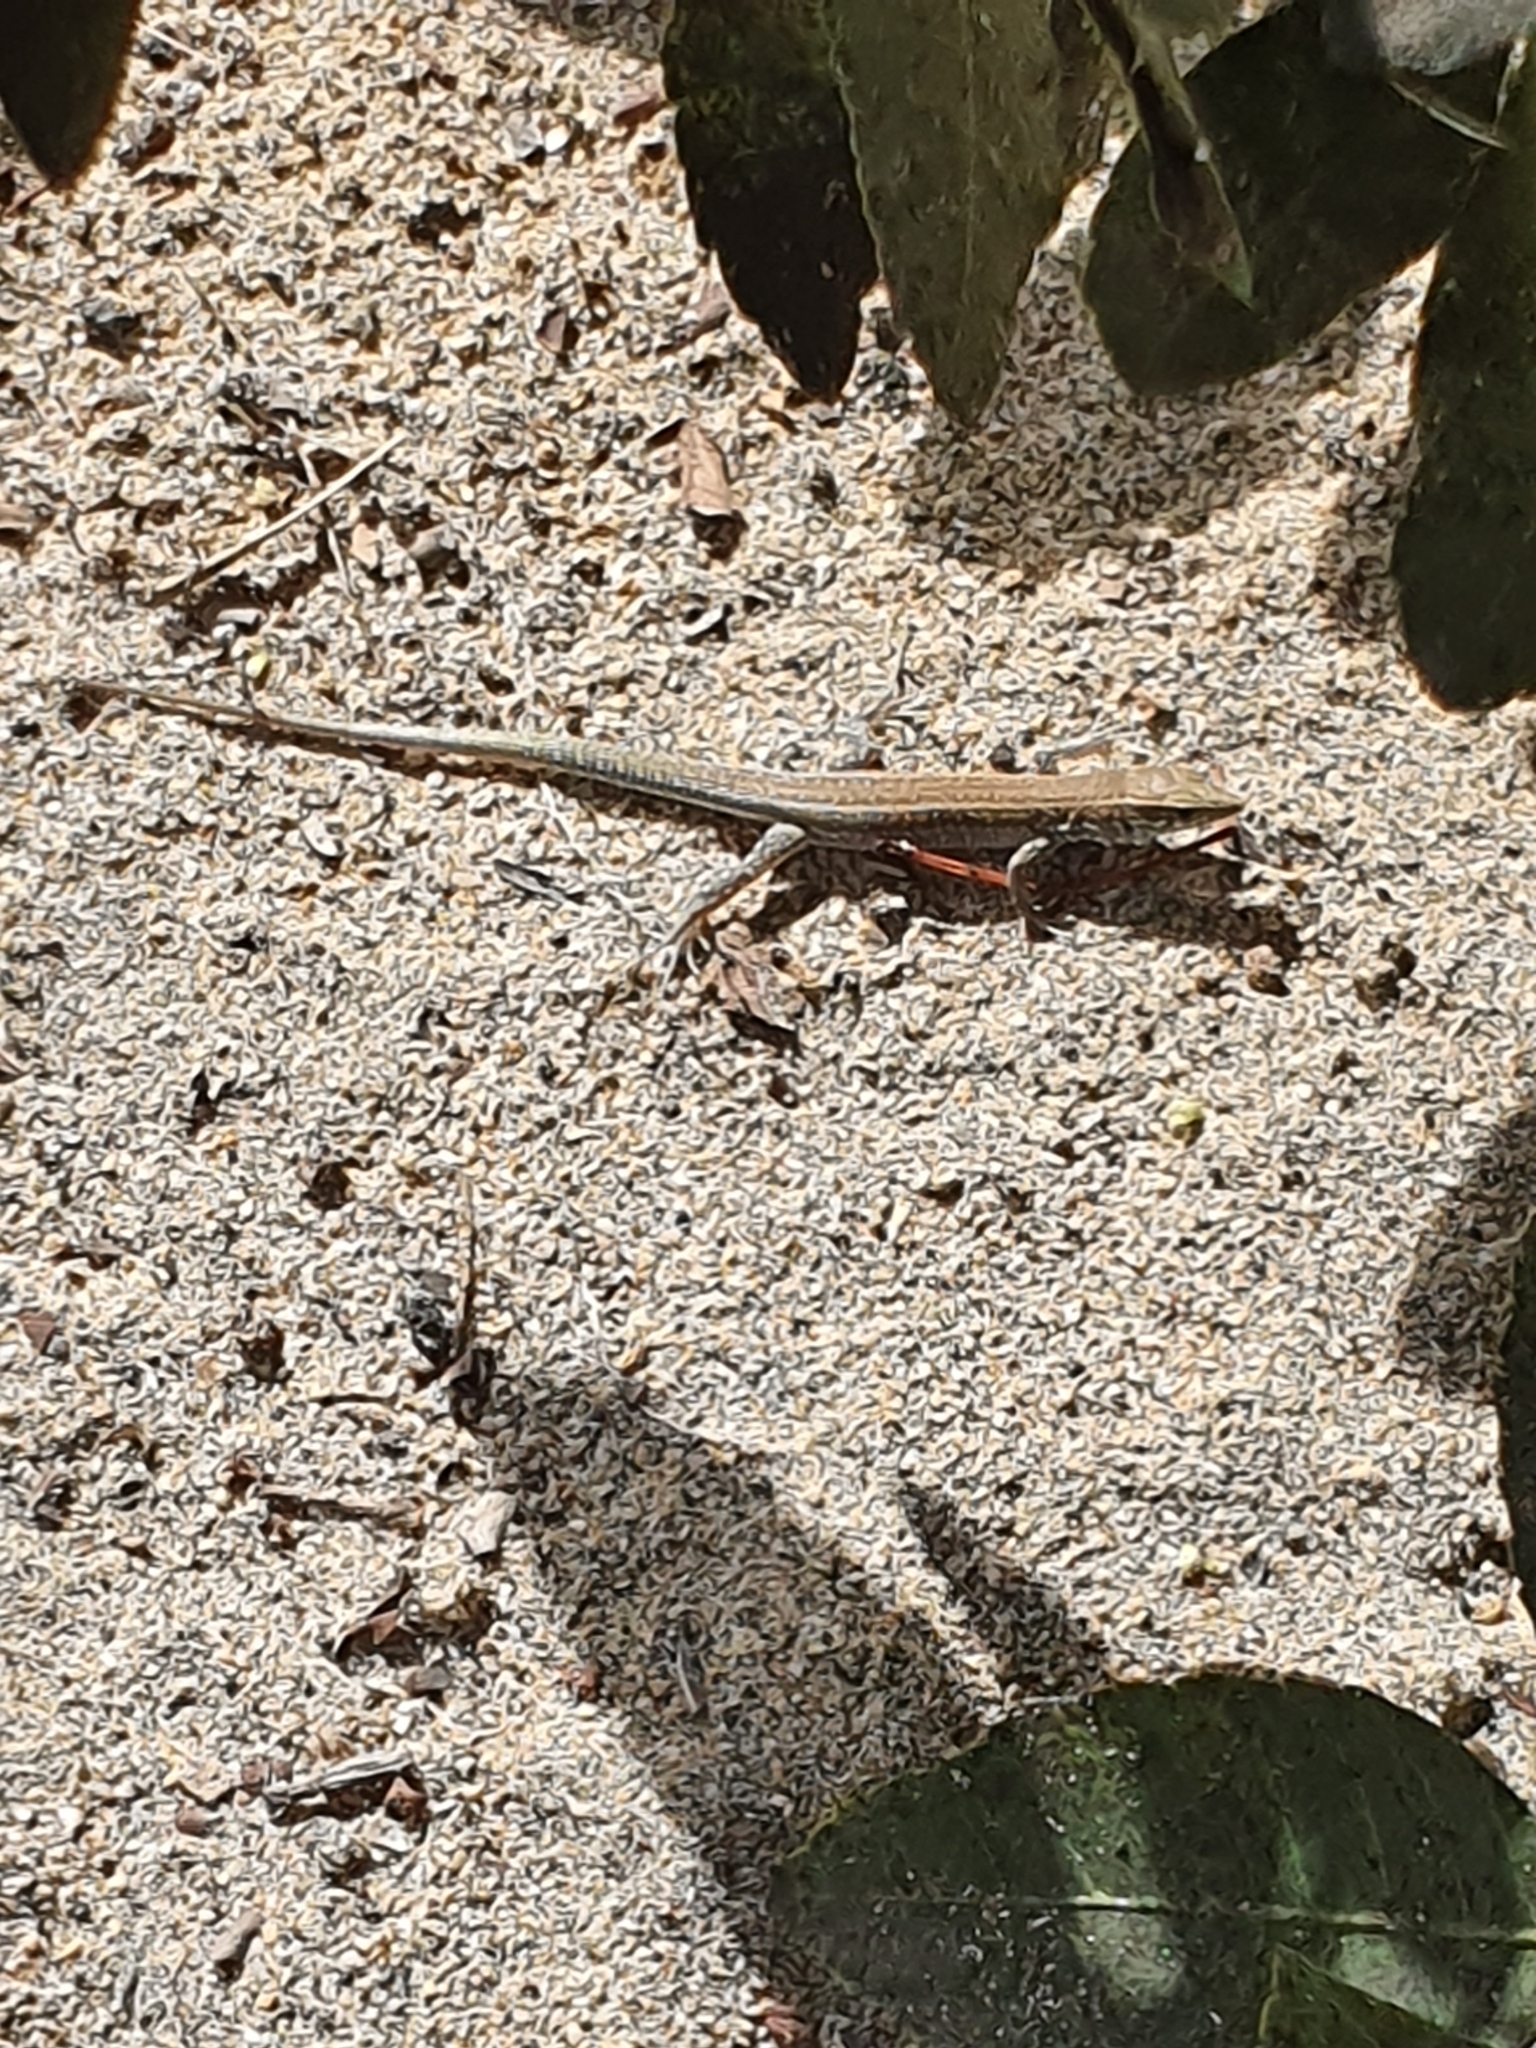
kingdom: Animalia
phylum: Chordata
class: Squamata
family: Lacertidae
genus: Gallotia
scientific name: Gallotia atlantica
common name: Atlantic lizard
